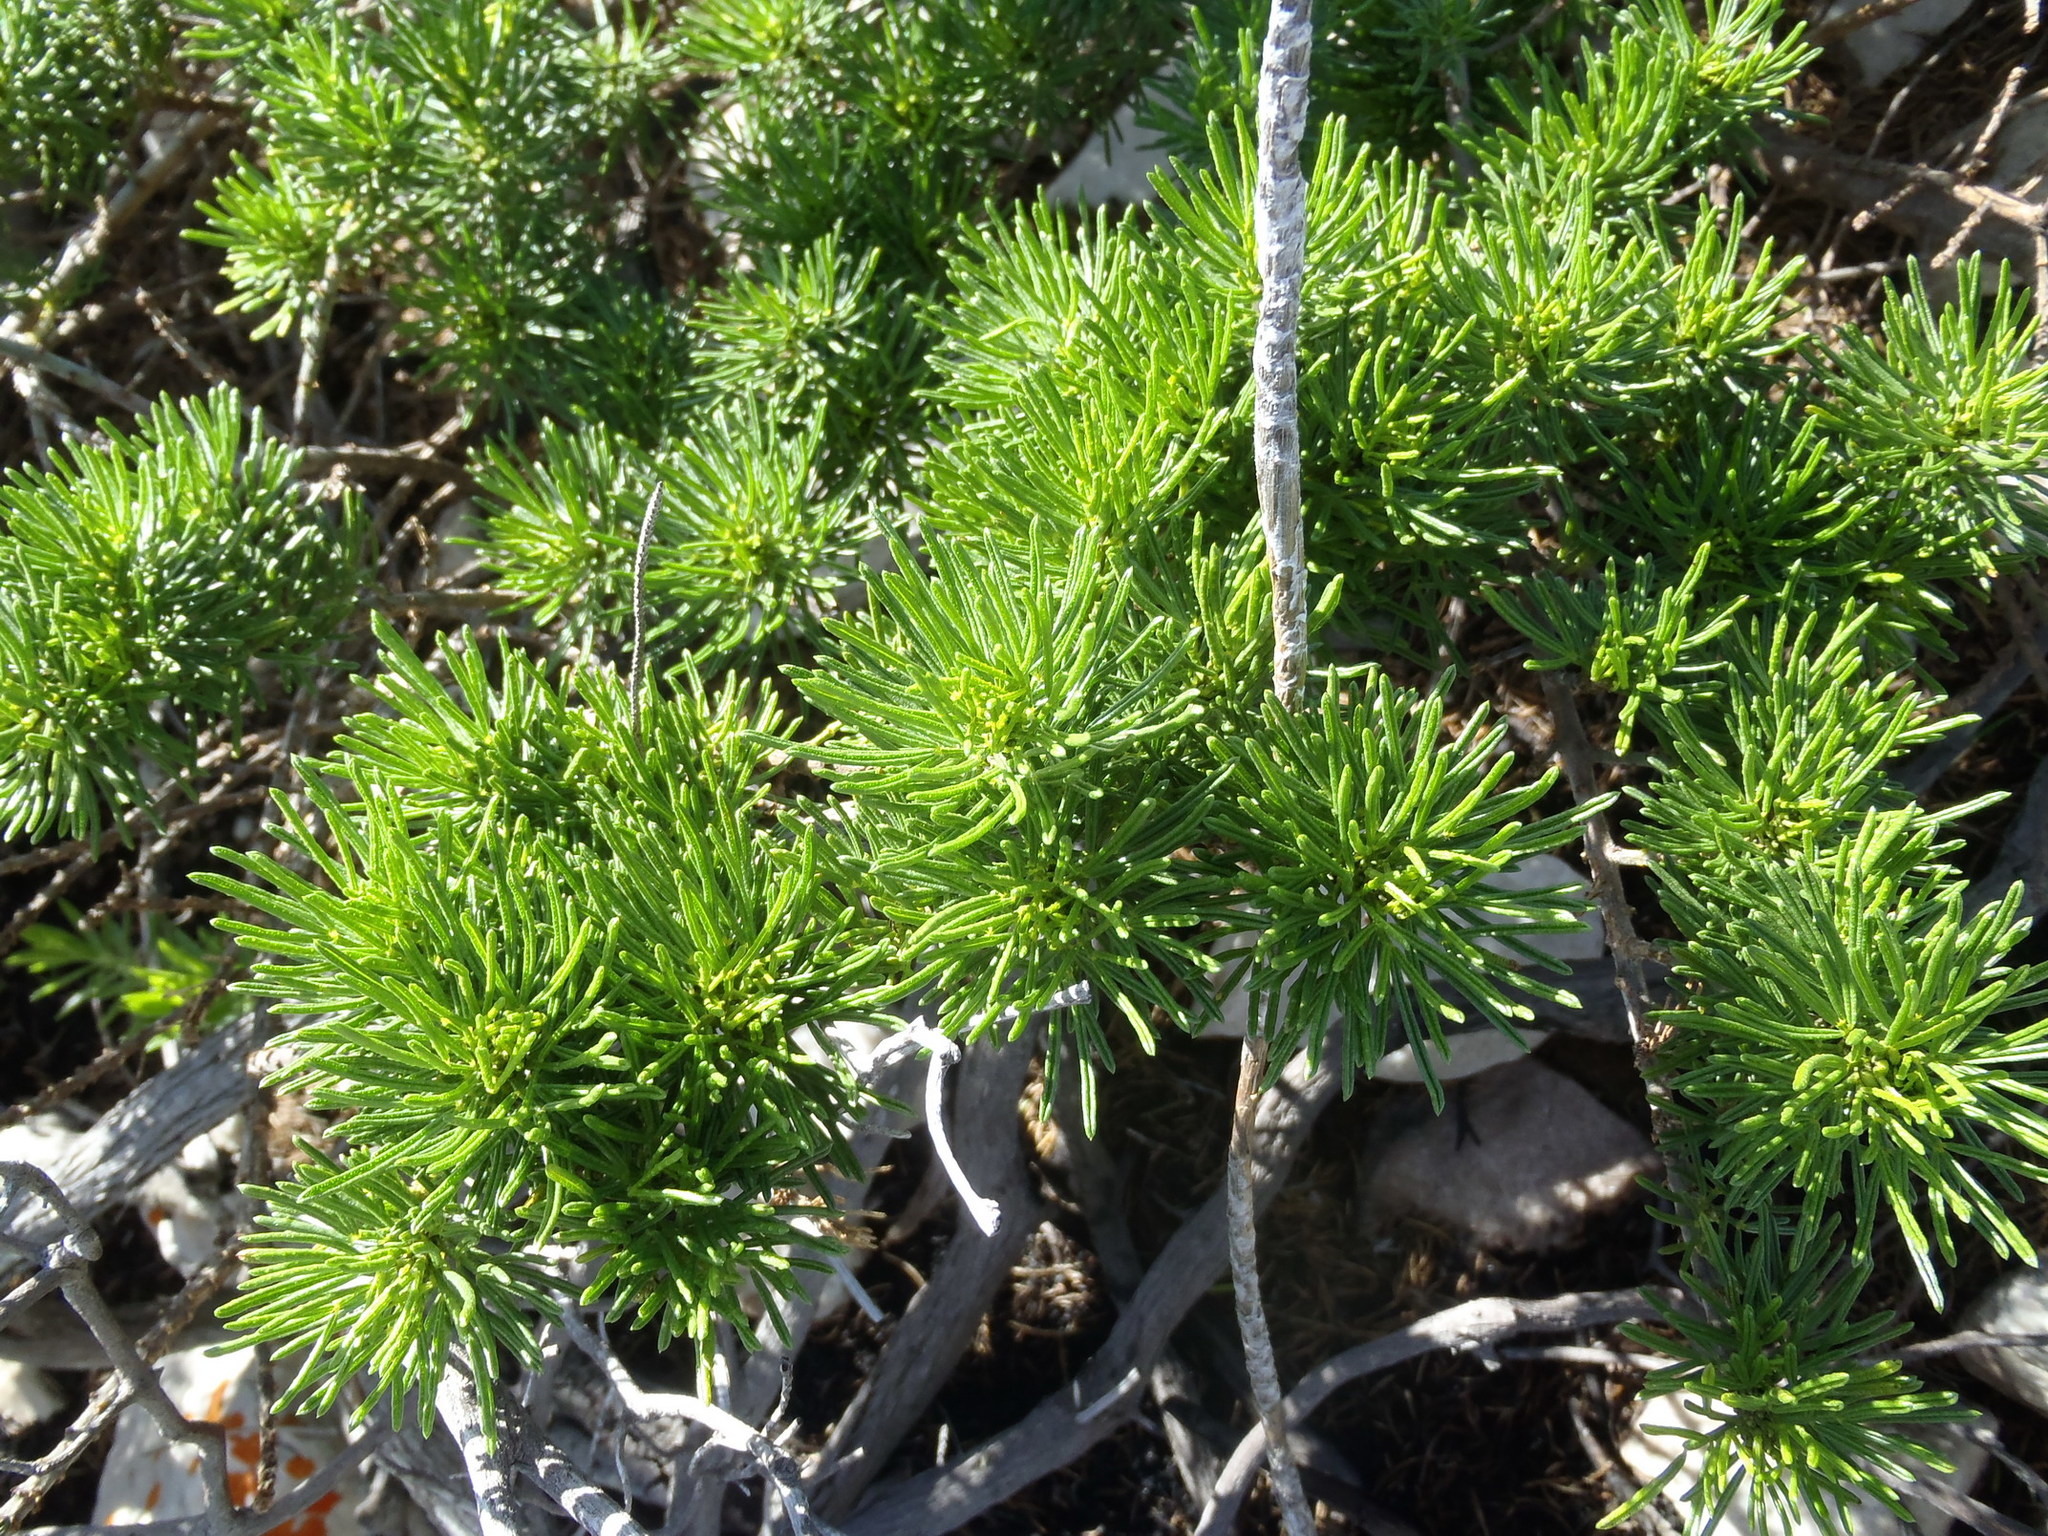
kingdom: Plantae
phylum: Tracheophyta
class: Magnoliopsida
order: Fabales
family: Fabaceae
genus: Psoralea
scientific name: Psoralea vanberkelae
